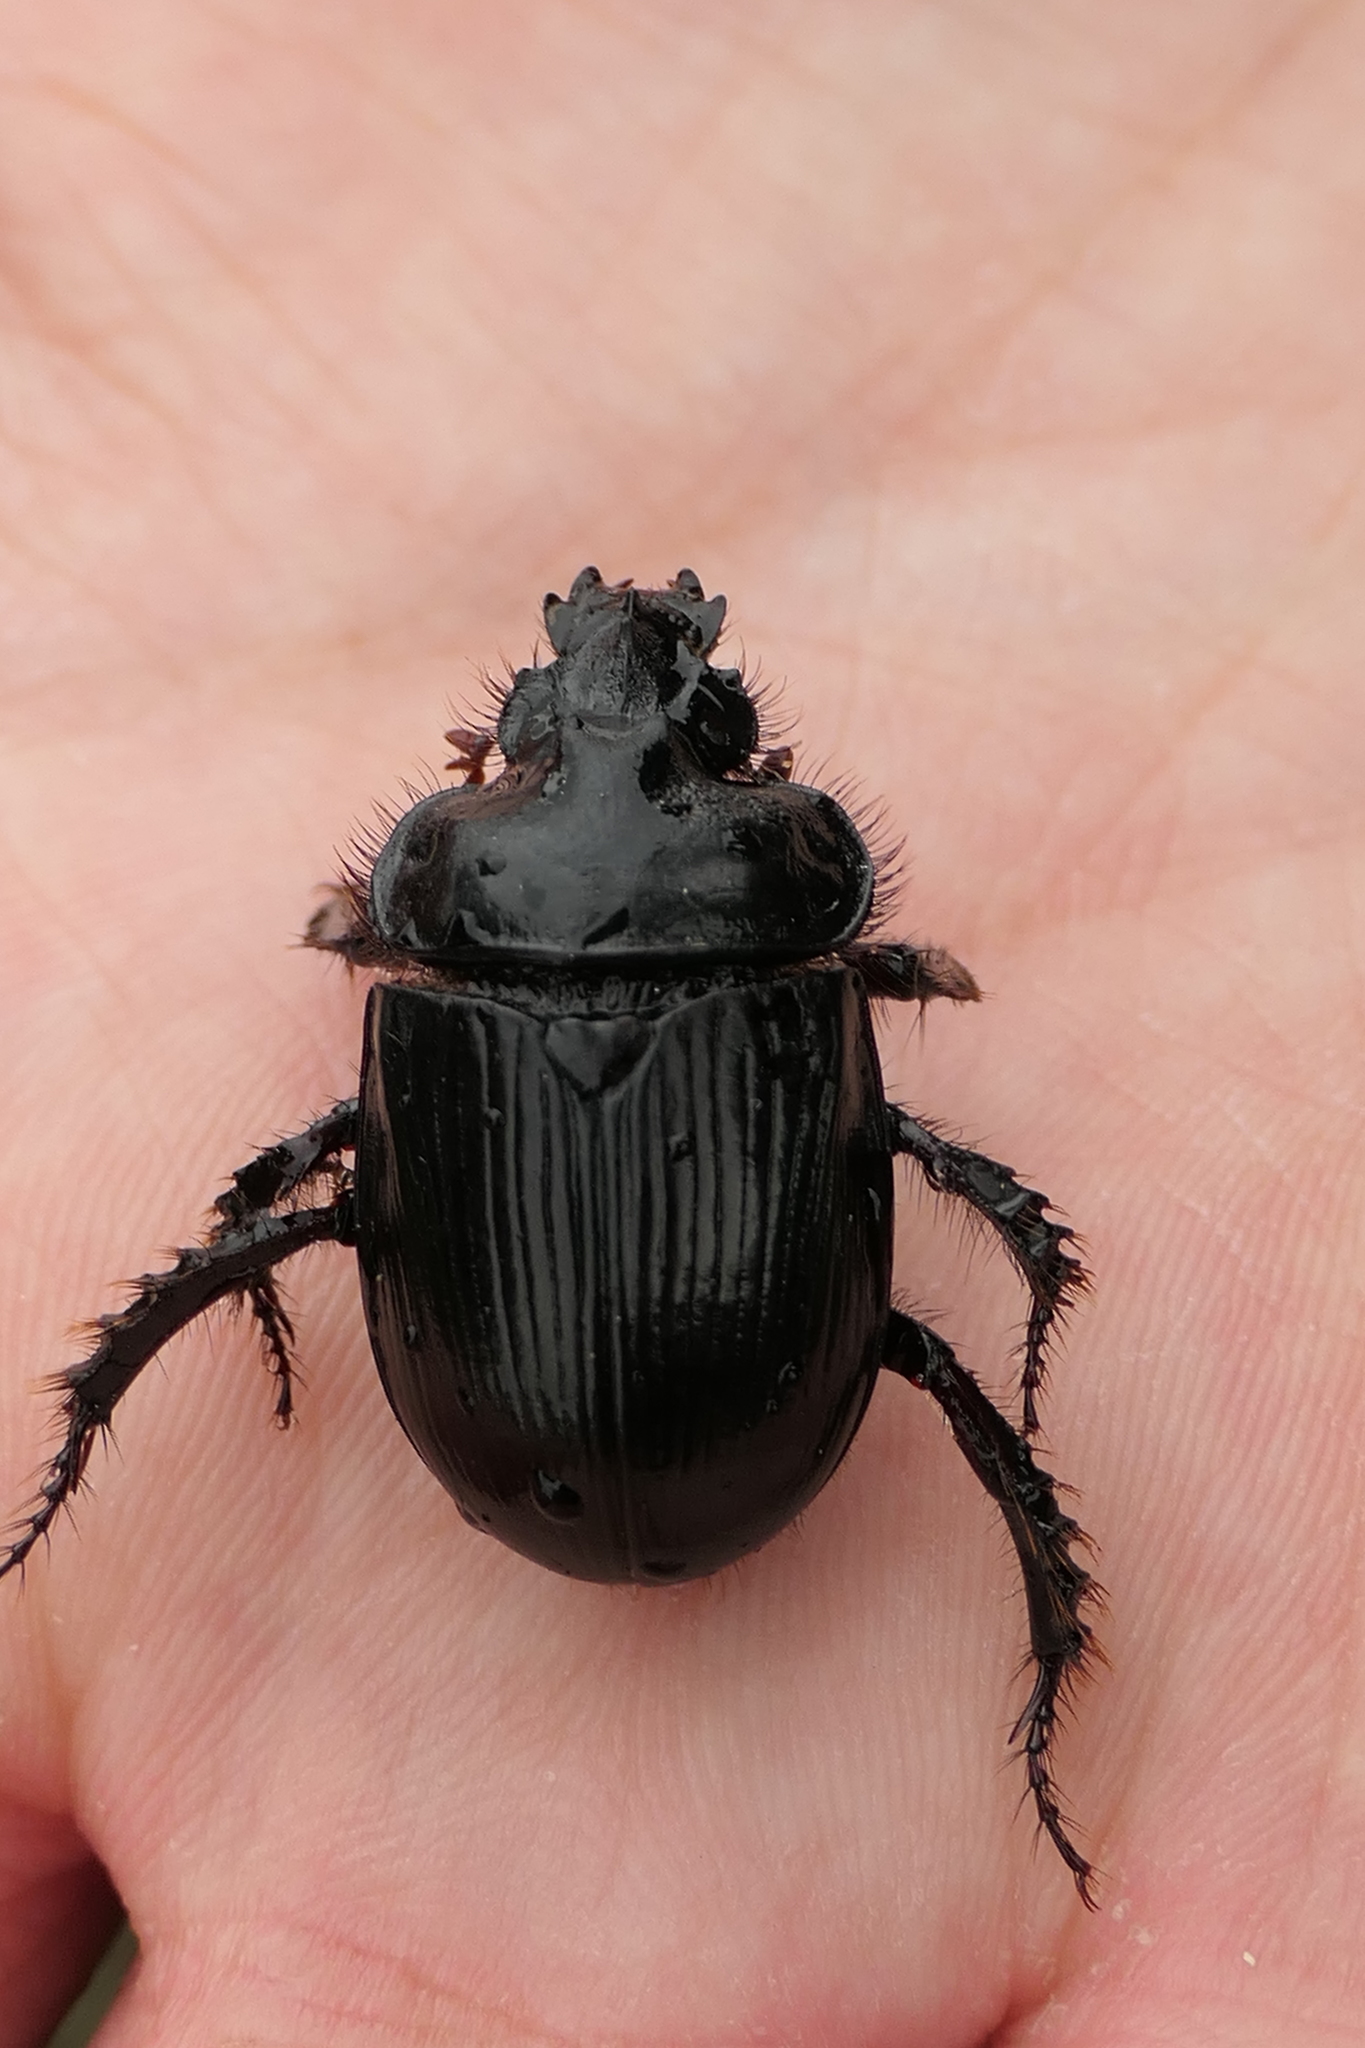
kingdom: Animalia
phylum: Arthropoda
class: Insecta
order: Coleoptera
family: Geotrupidae
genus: Ceratophyus
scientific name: Ceratophyus hoffmannseggi
